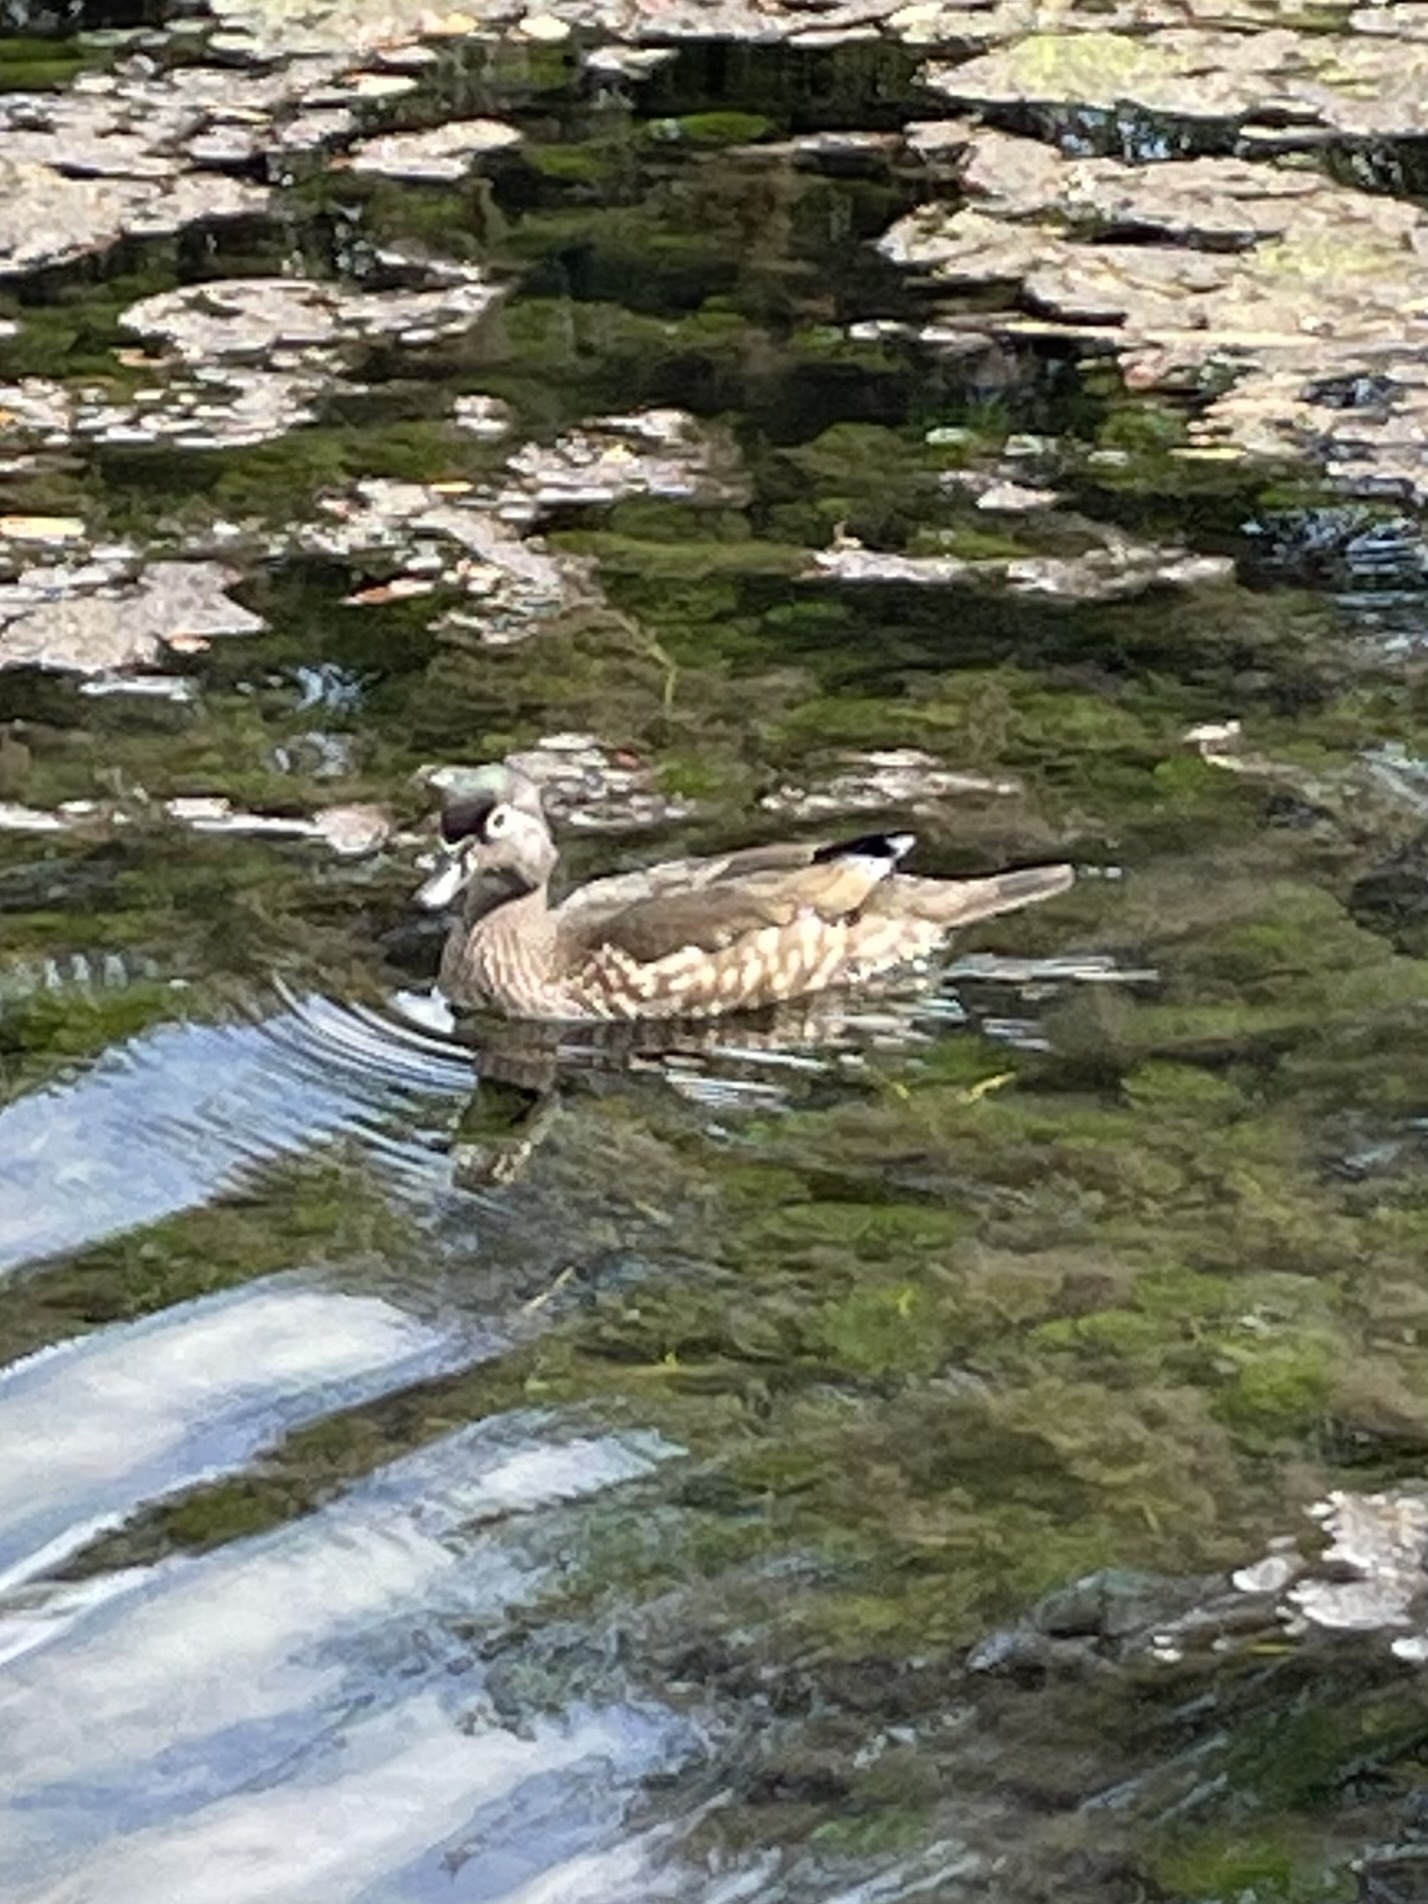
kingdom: Animalia
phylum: Chordata
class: Aves
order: Anseriformes
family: Anatidae
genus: Aix
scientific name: Aix sponsa
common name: Wood duck
